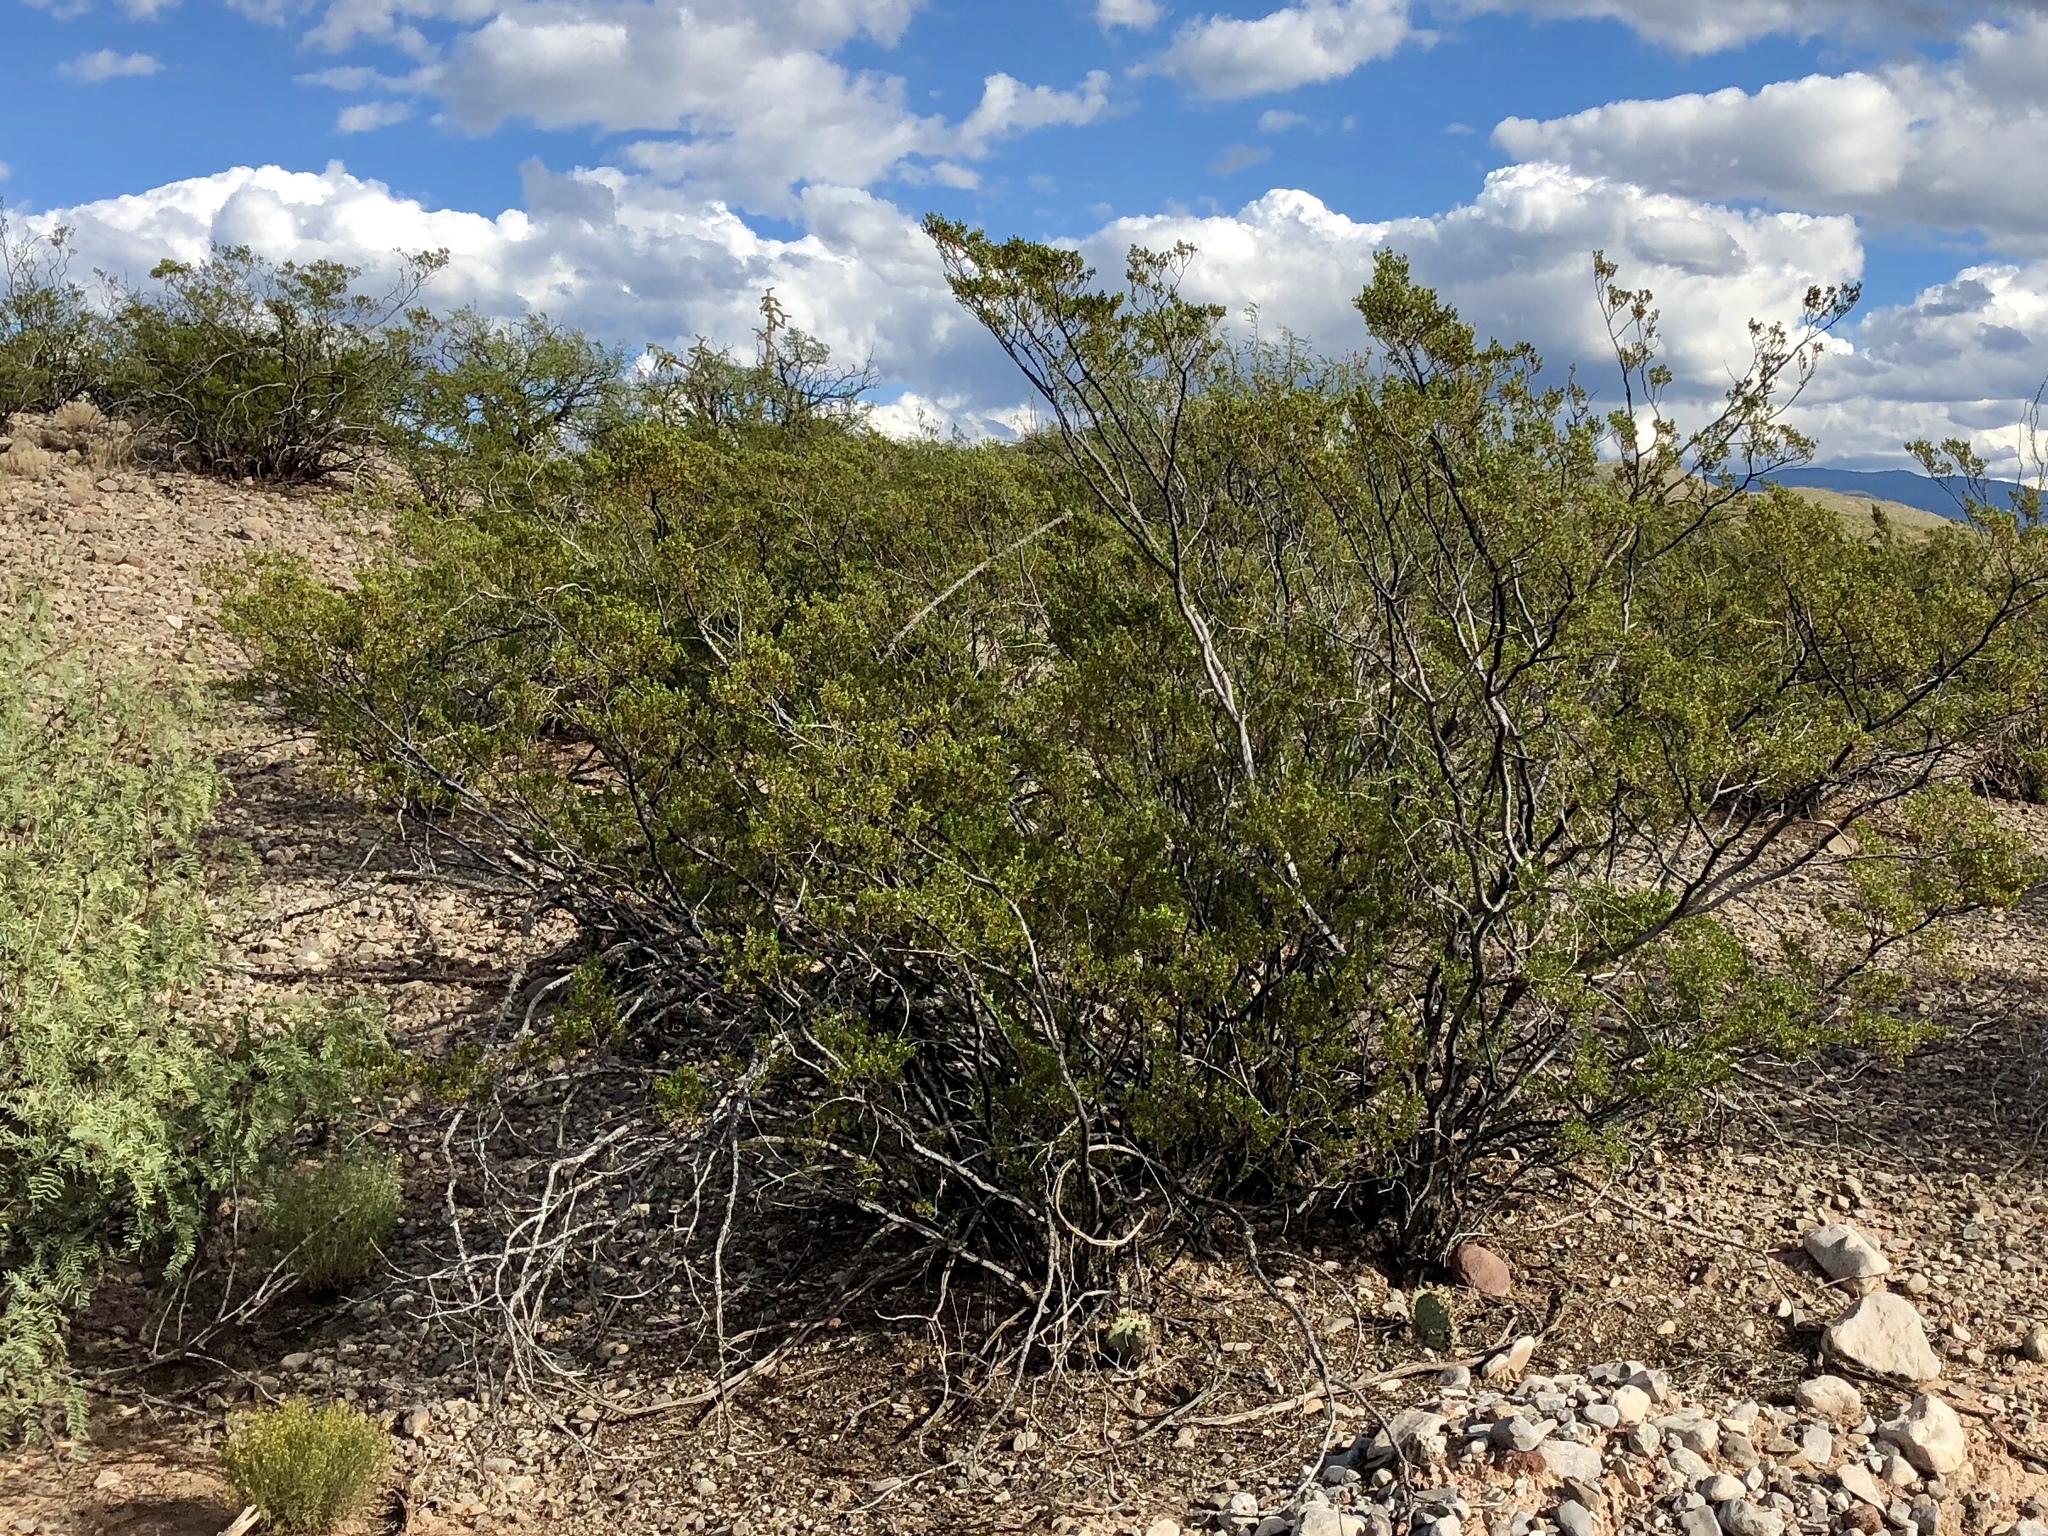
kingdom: Plantae
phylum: Tracheophyta
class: Magnoliopsida
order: Zygophyllales
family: Zygophyllaceae
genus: Larrea
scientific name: Larrea tridentata
